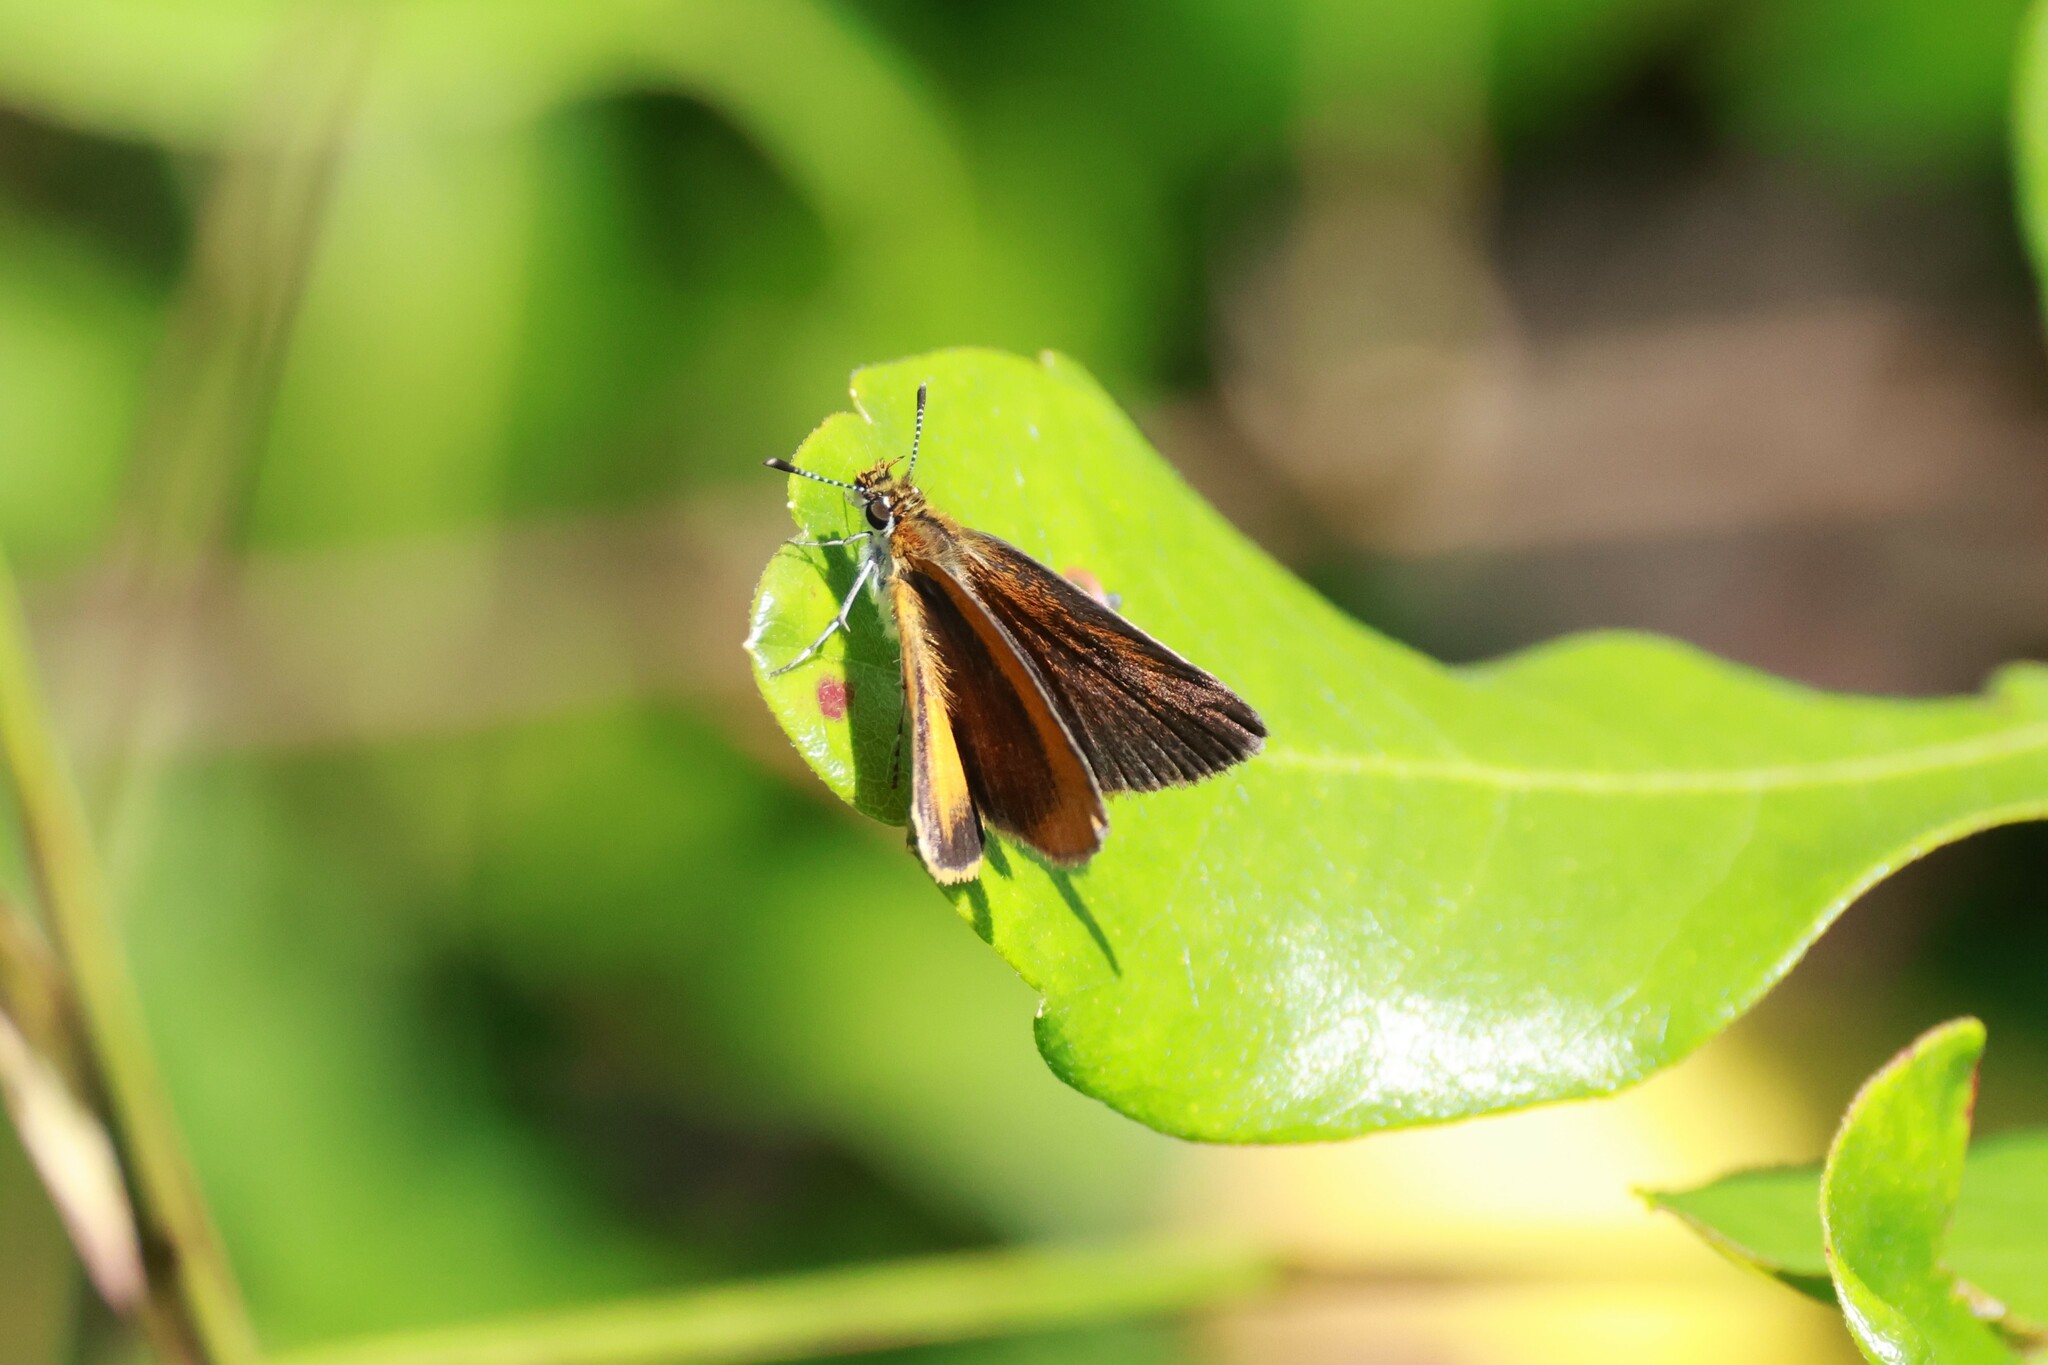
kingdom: Animalia
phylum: Arthropoda
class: Insecta
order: Lepidoptera
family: Hesperiidae
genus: Ancyloxypha
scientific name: Ancyloxypha numitor
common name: Least skipper
